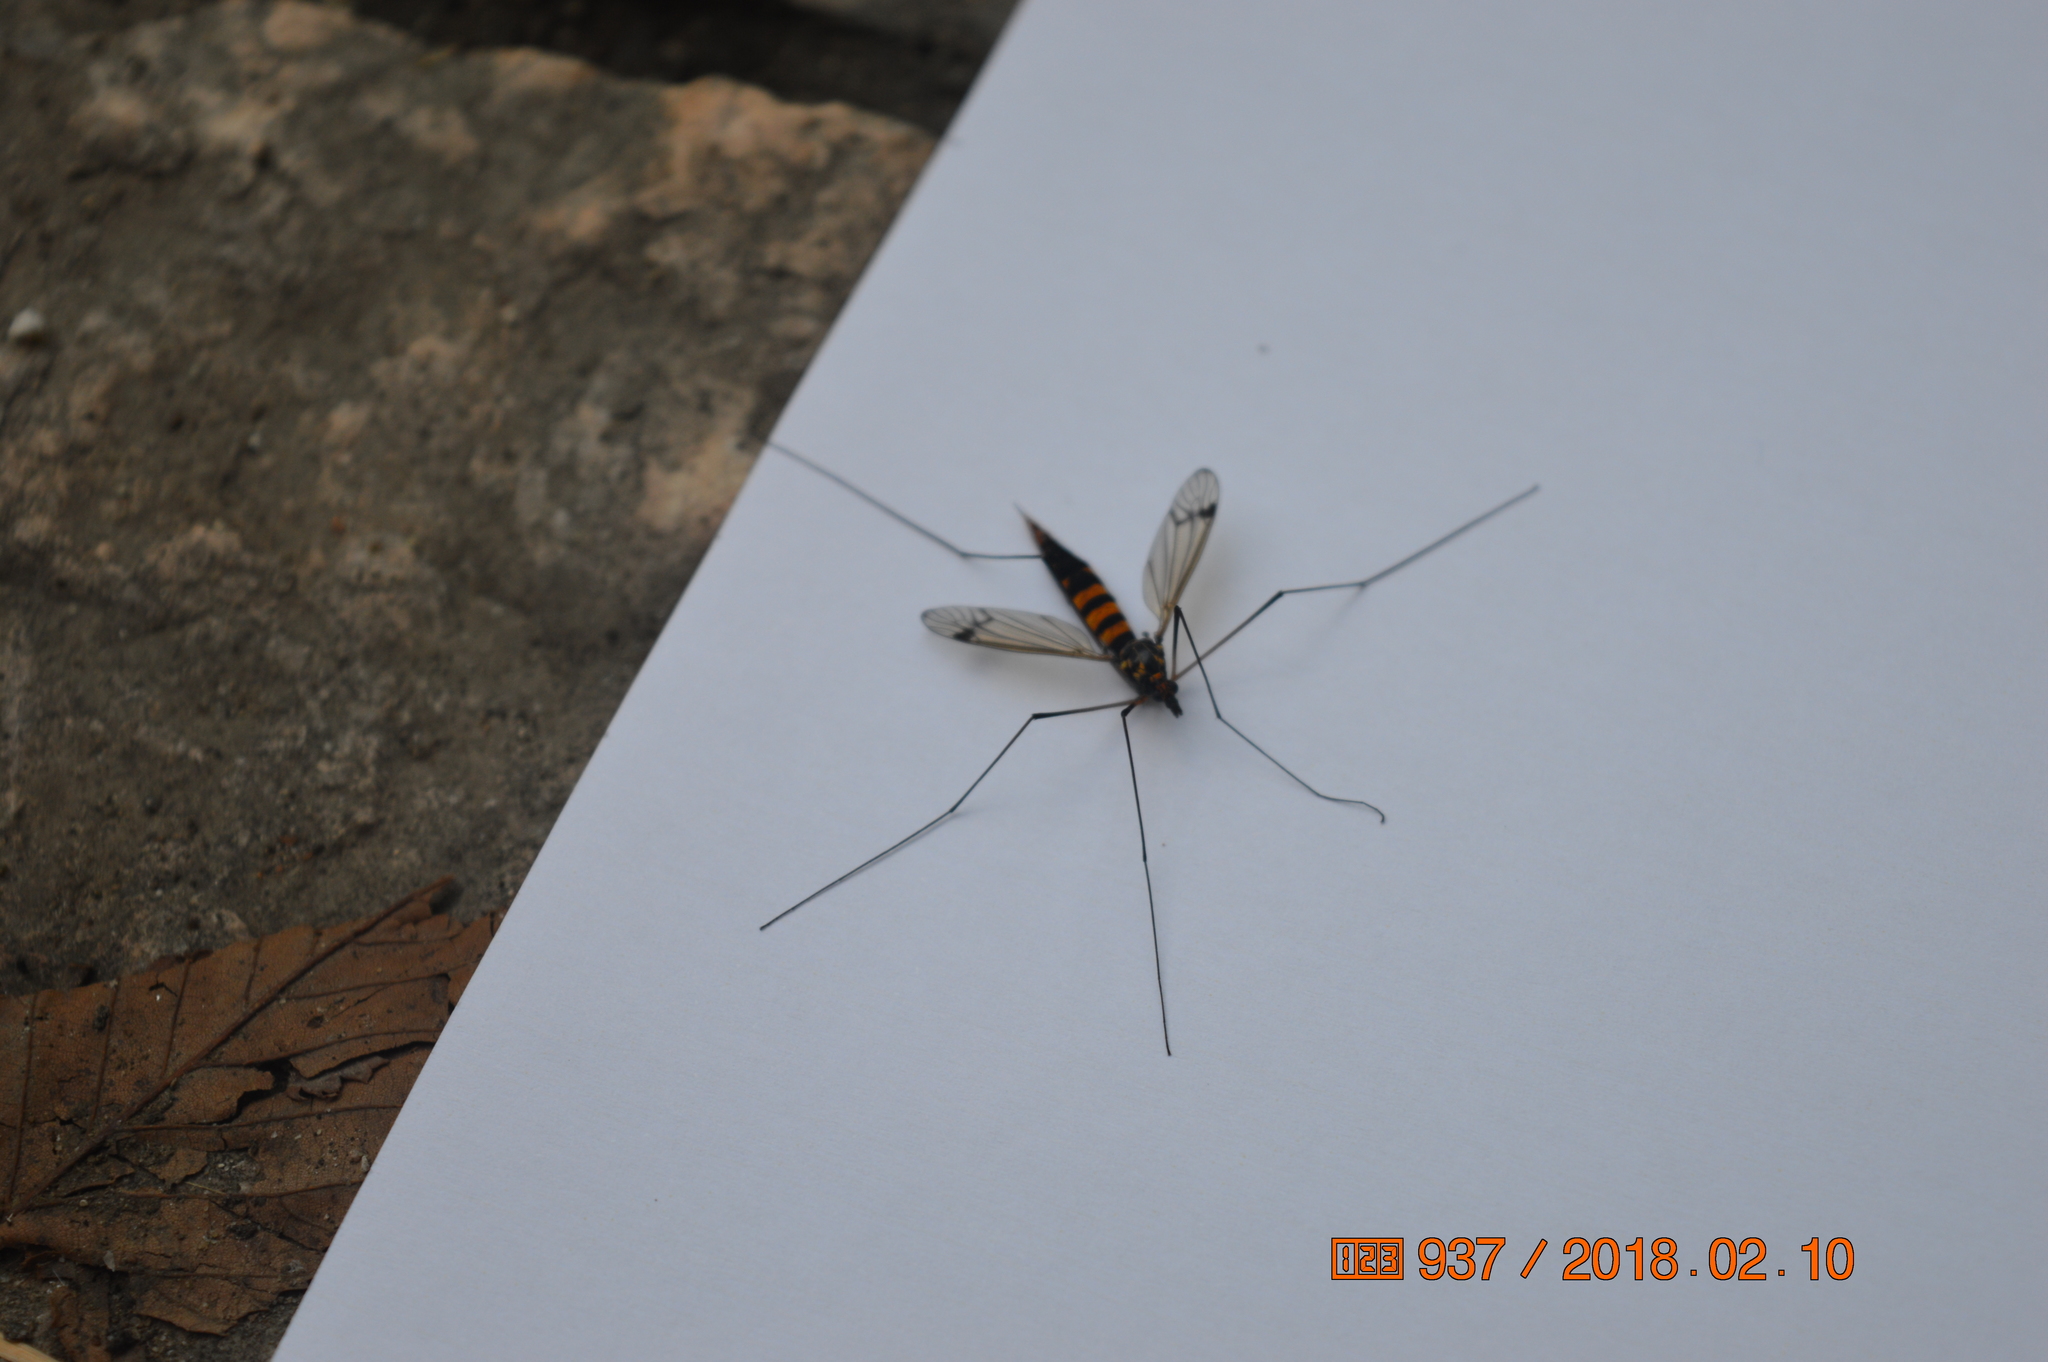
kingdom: Animalia
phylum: Arthropoda
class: Insecta
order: Diptera
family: Tipulidae
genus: Nephrotoma
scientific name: Nephrotoma crocata
